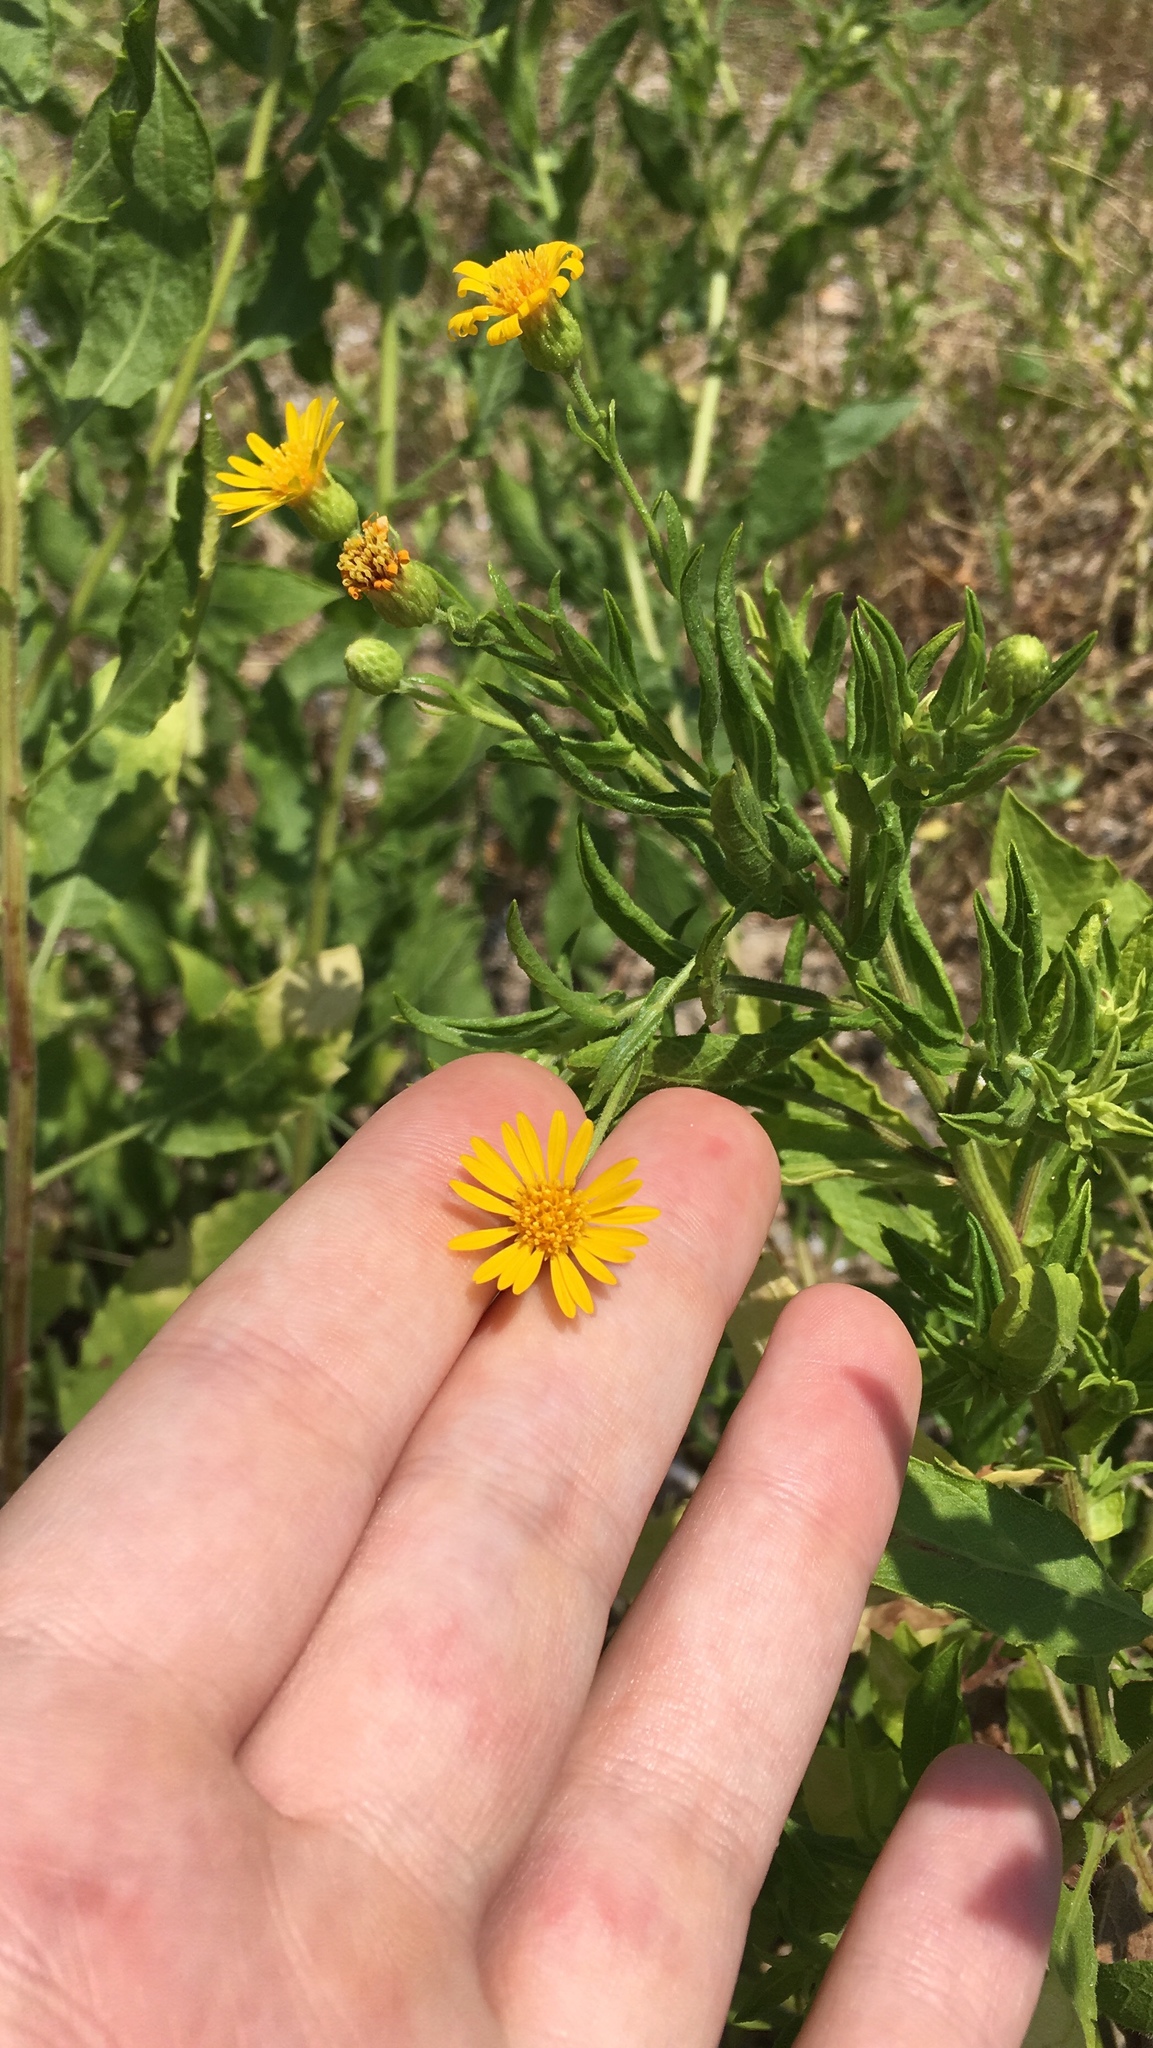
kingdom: Plantae
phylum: Tracheophyta
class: Magnoliopsida
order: Asterales
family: Asteraceae
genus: Heterotheca
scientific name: Heterotheca subaxillaris
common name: Camphorweed
